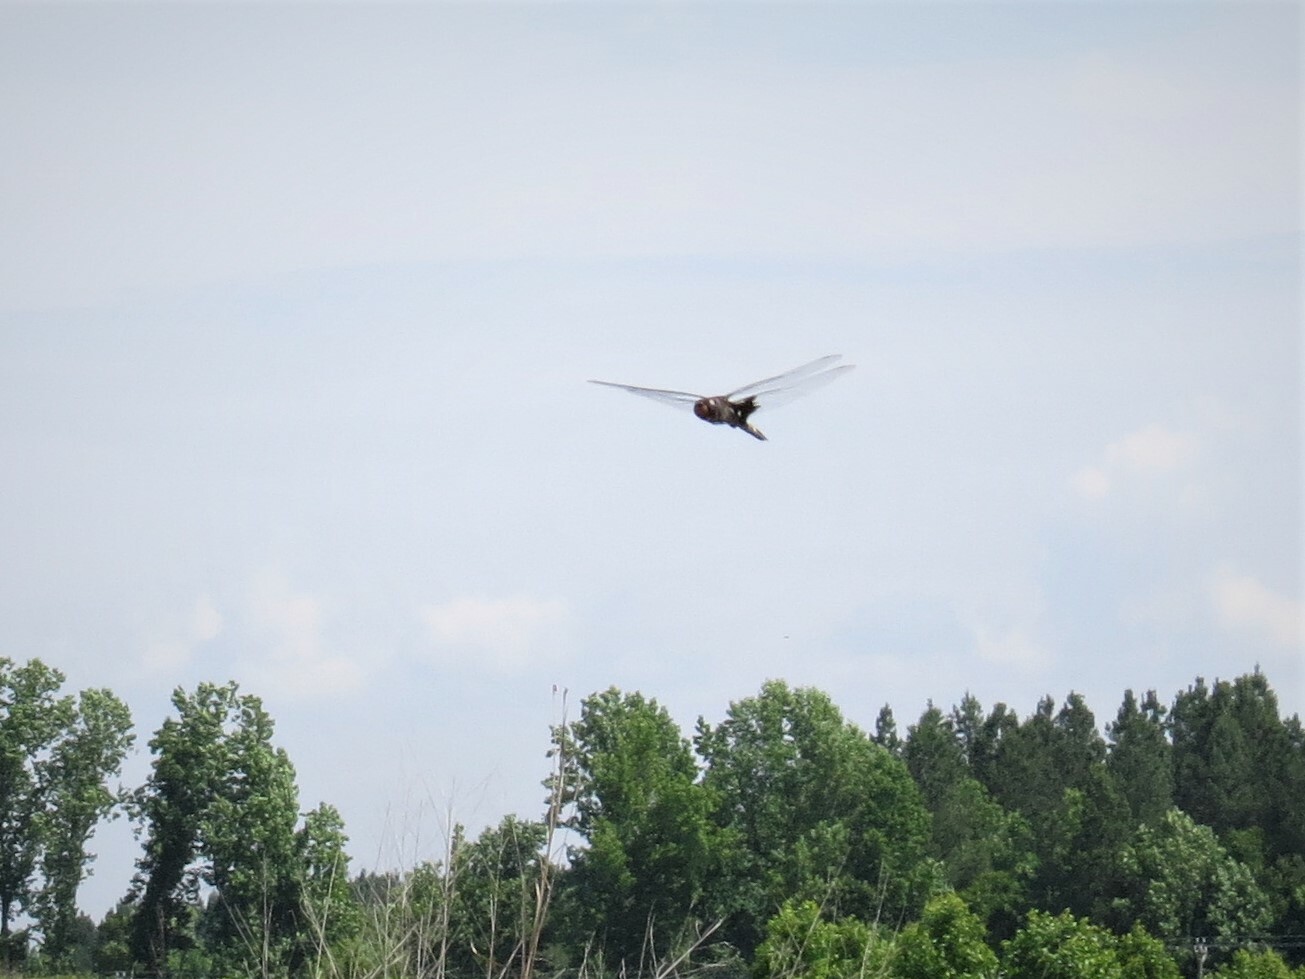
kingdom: Animalia
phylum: Arthropoda
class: Insecta
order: Odonata
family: Libellulidae
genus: Tramea
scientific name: Tramea lacerata
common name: Black saddlebags
